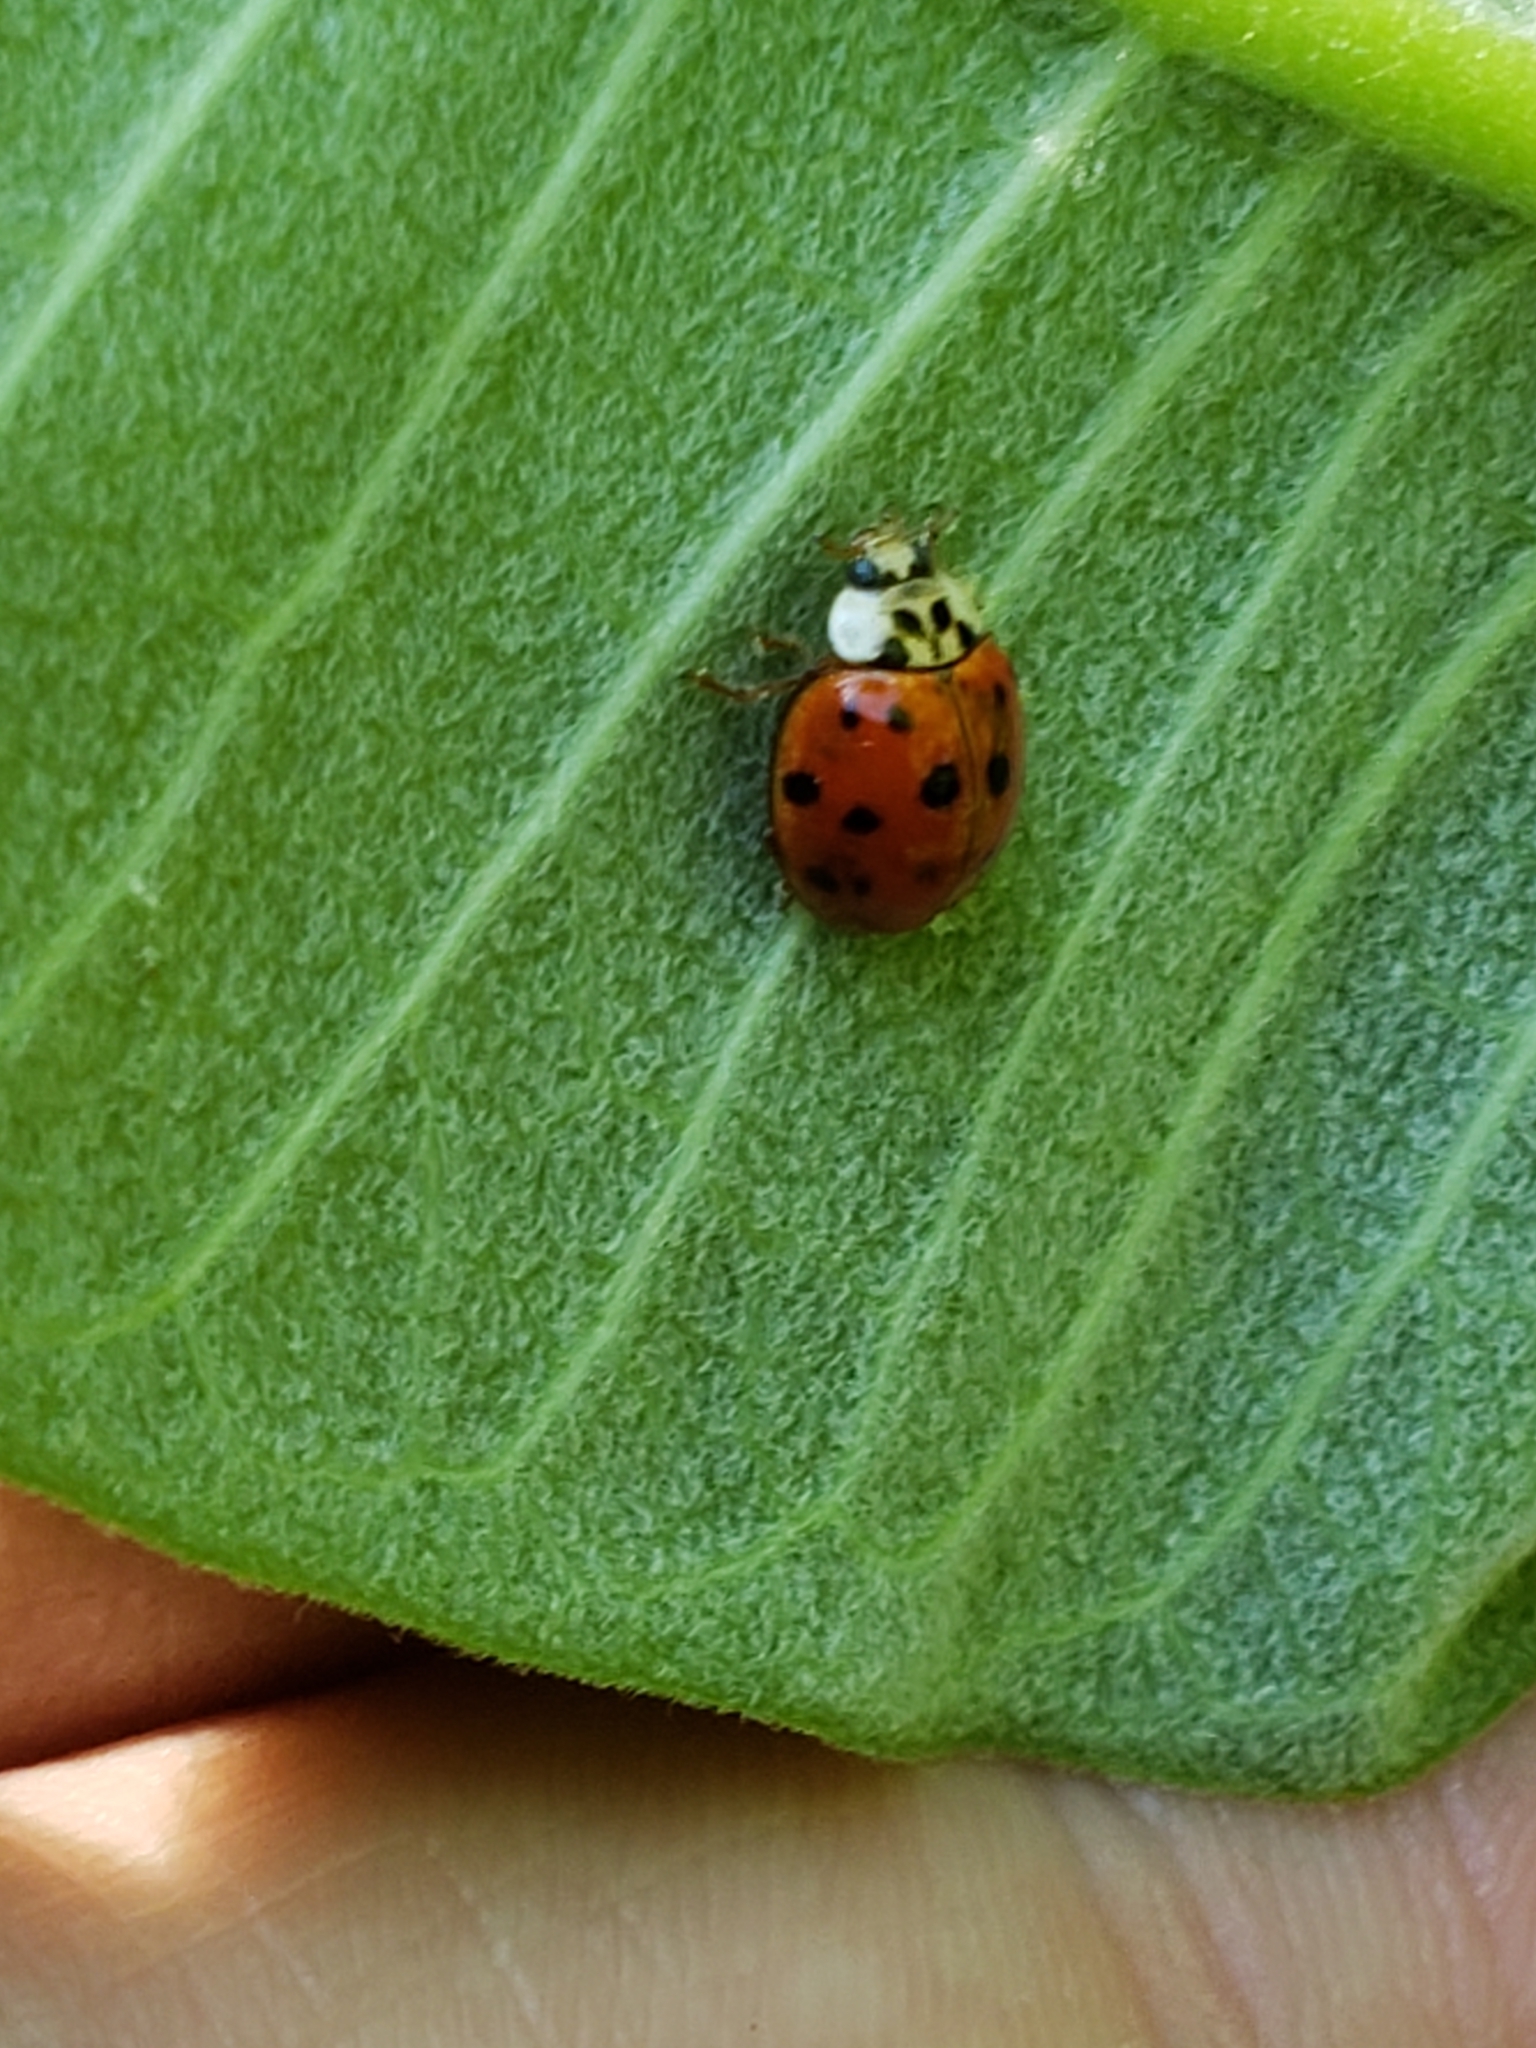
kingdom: Animalia
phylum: Arthropoda
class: Insecta
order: Coleoptera
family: Coccinellidae
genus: Harmonia
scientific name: Harmonia axyridis
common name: Harlequin ladybird
